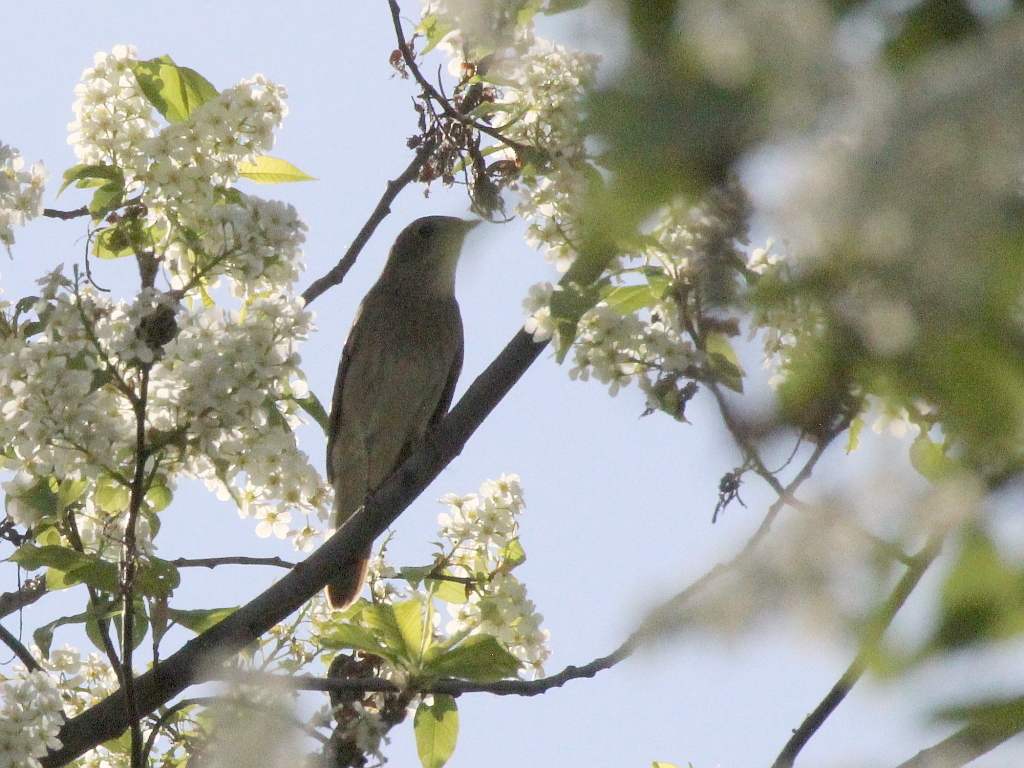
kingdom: Animalia
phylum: Chordata
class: Aves
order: Passeriformes
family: Muscicapidae
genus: Luscinia
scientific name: Luscinia luscinia
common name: Thrush nightingale
